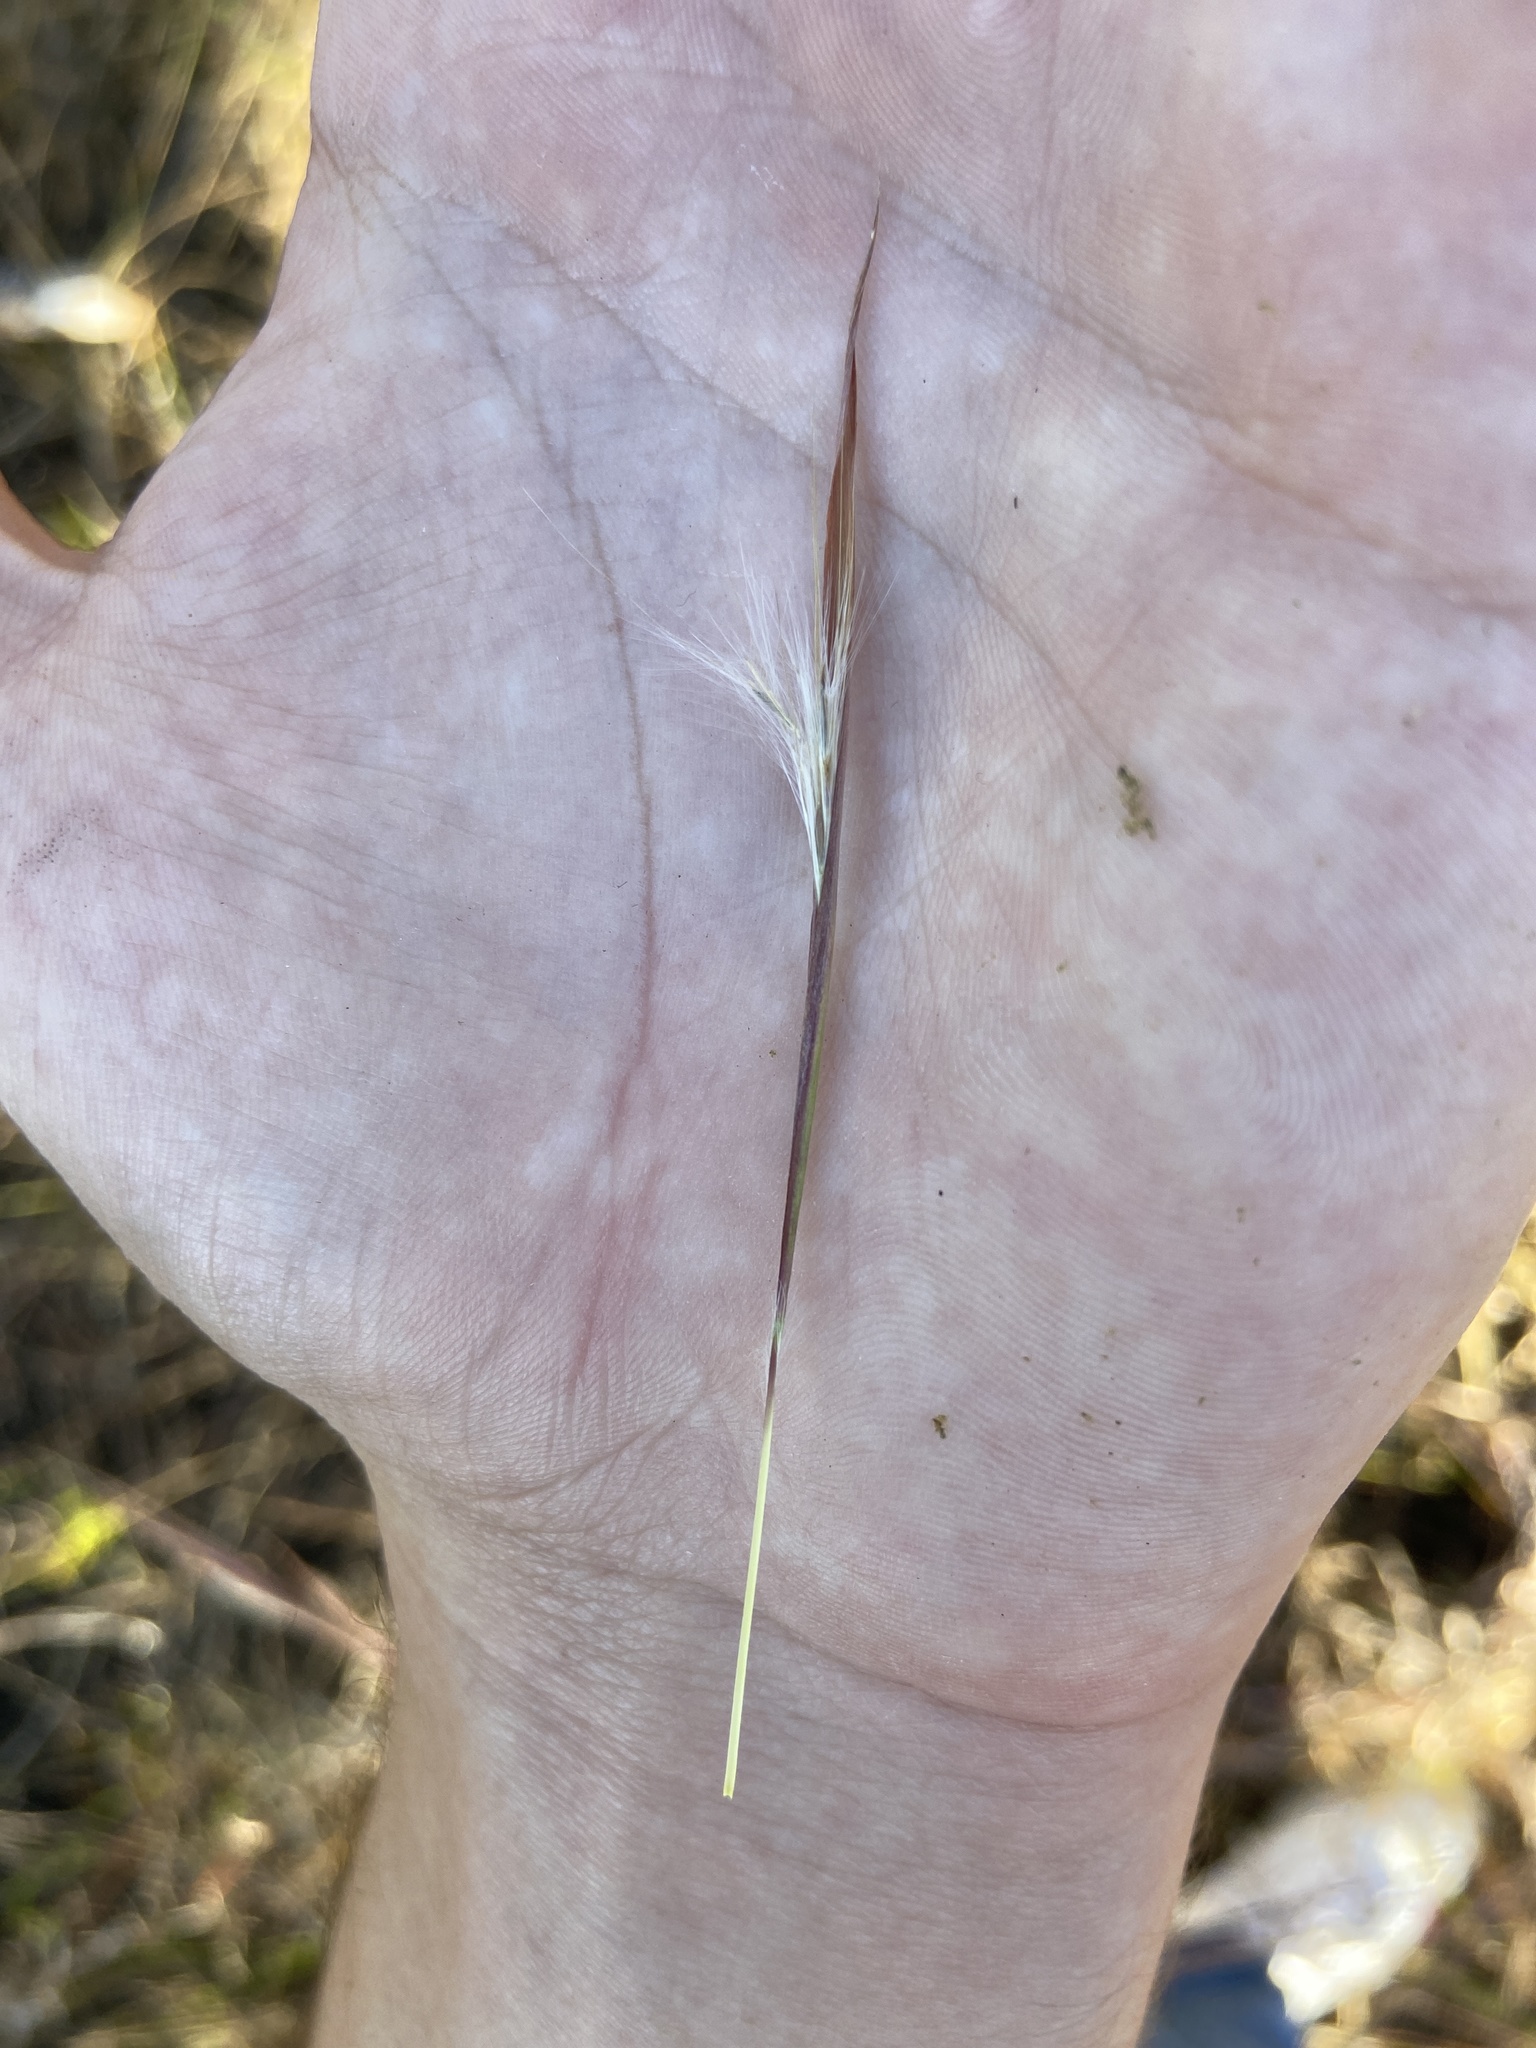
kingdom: Plantae
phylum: Tracheophyta
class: Liliopsida
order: Poales
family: Poaceae
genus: Andropogon
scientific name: Andropogon dealbatus
